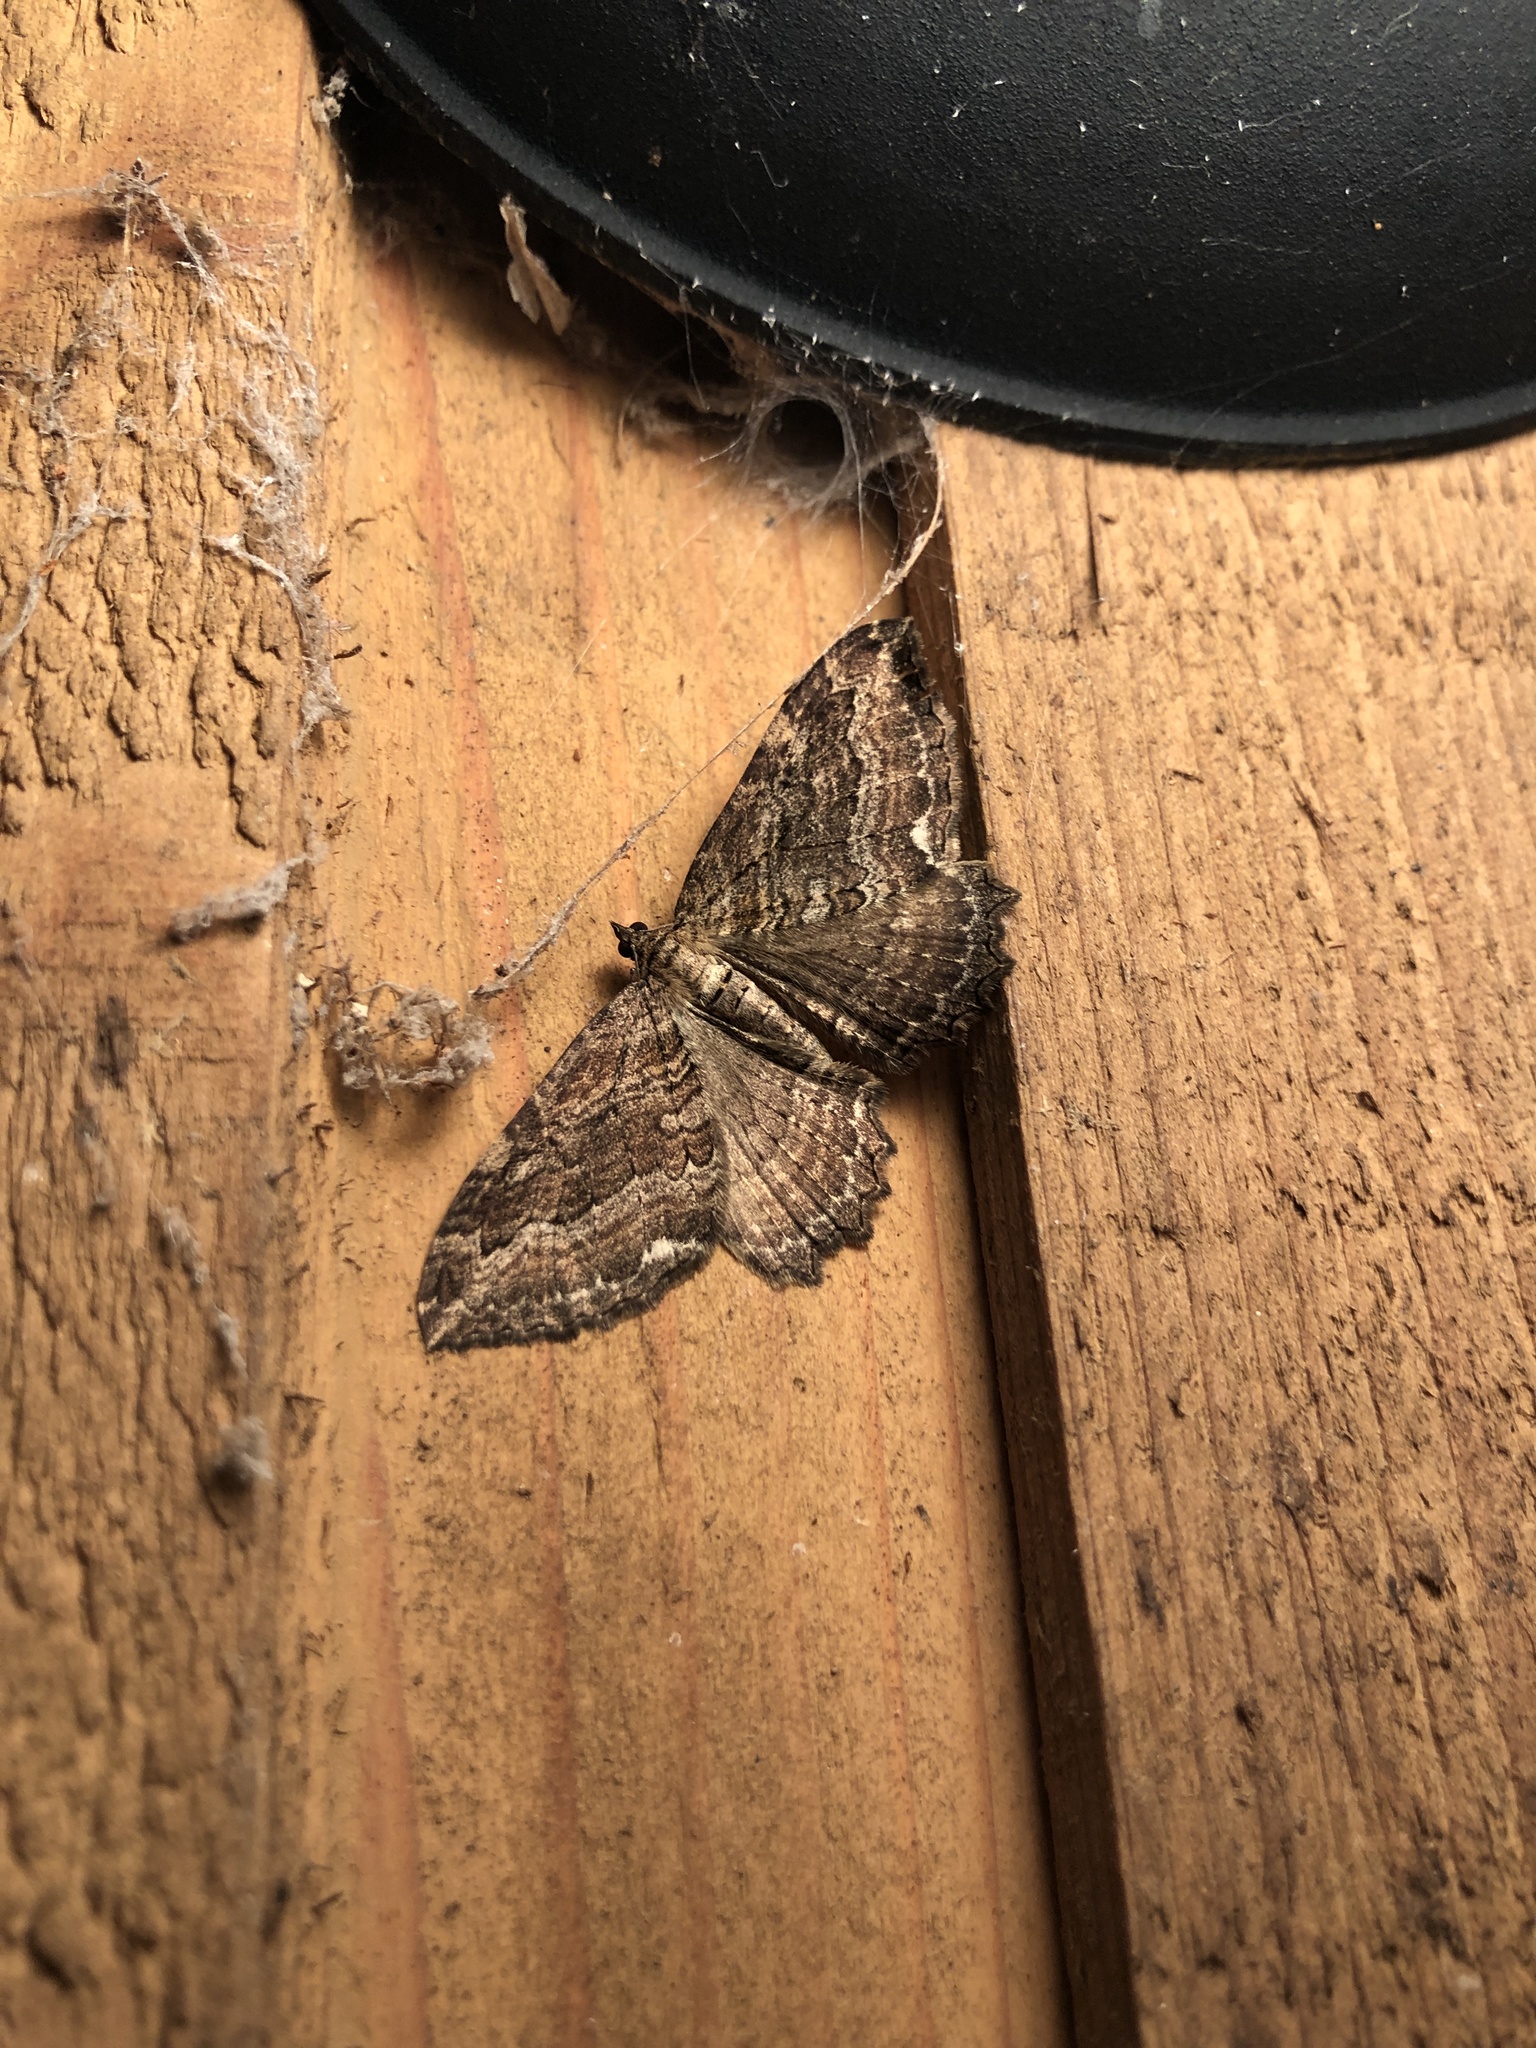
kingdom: Animalia
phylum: Arthropoda
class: Insecta
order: Lepidoptera
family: Geometridae
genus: Rheumaptera
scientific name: Rheumaptera
